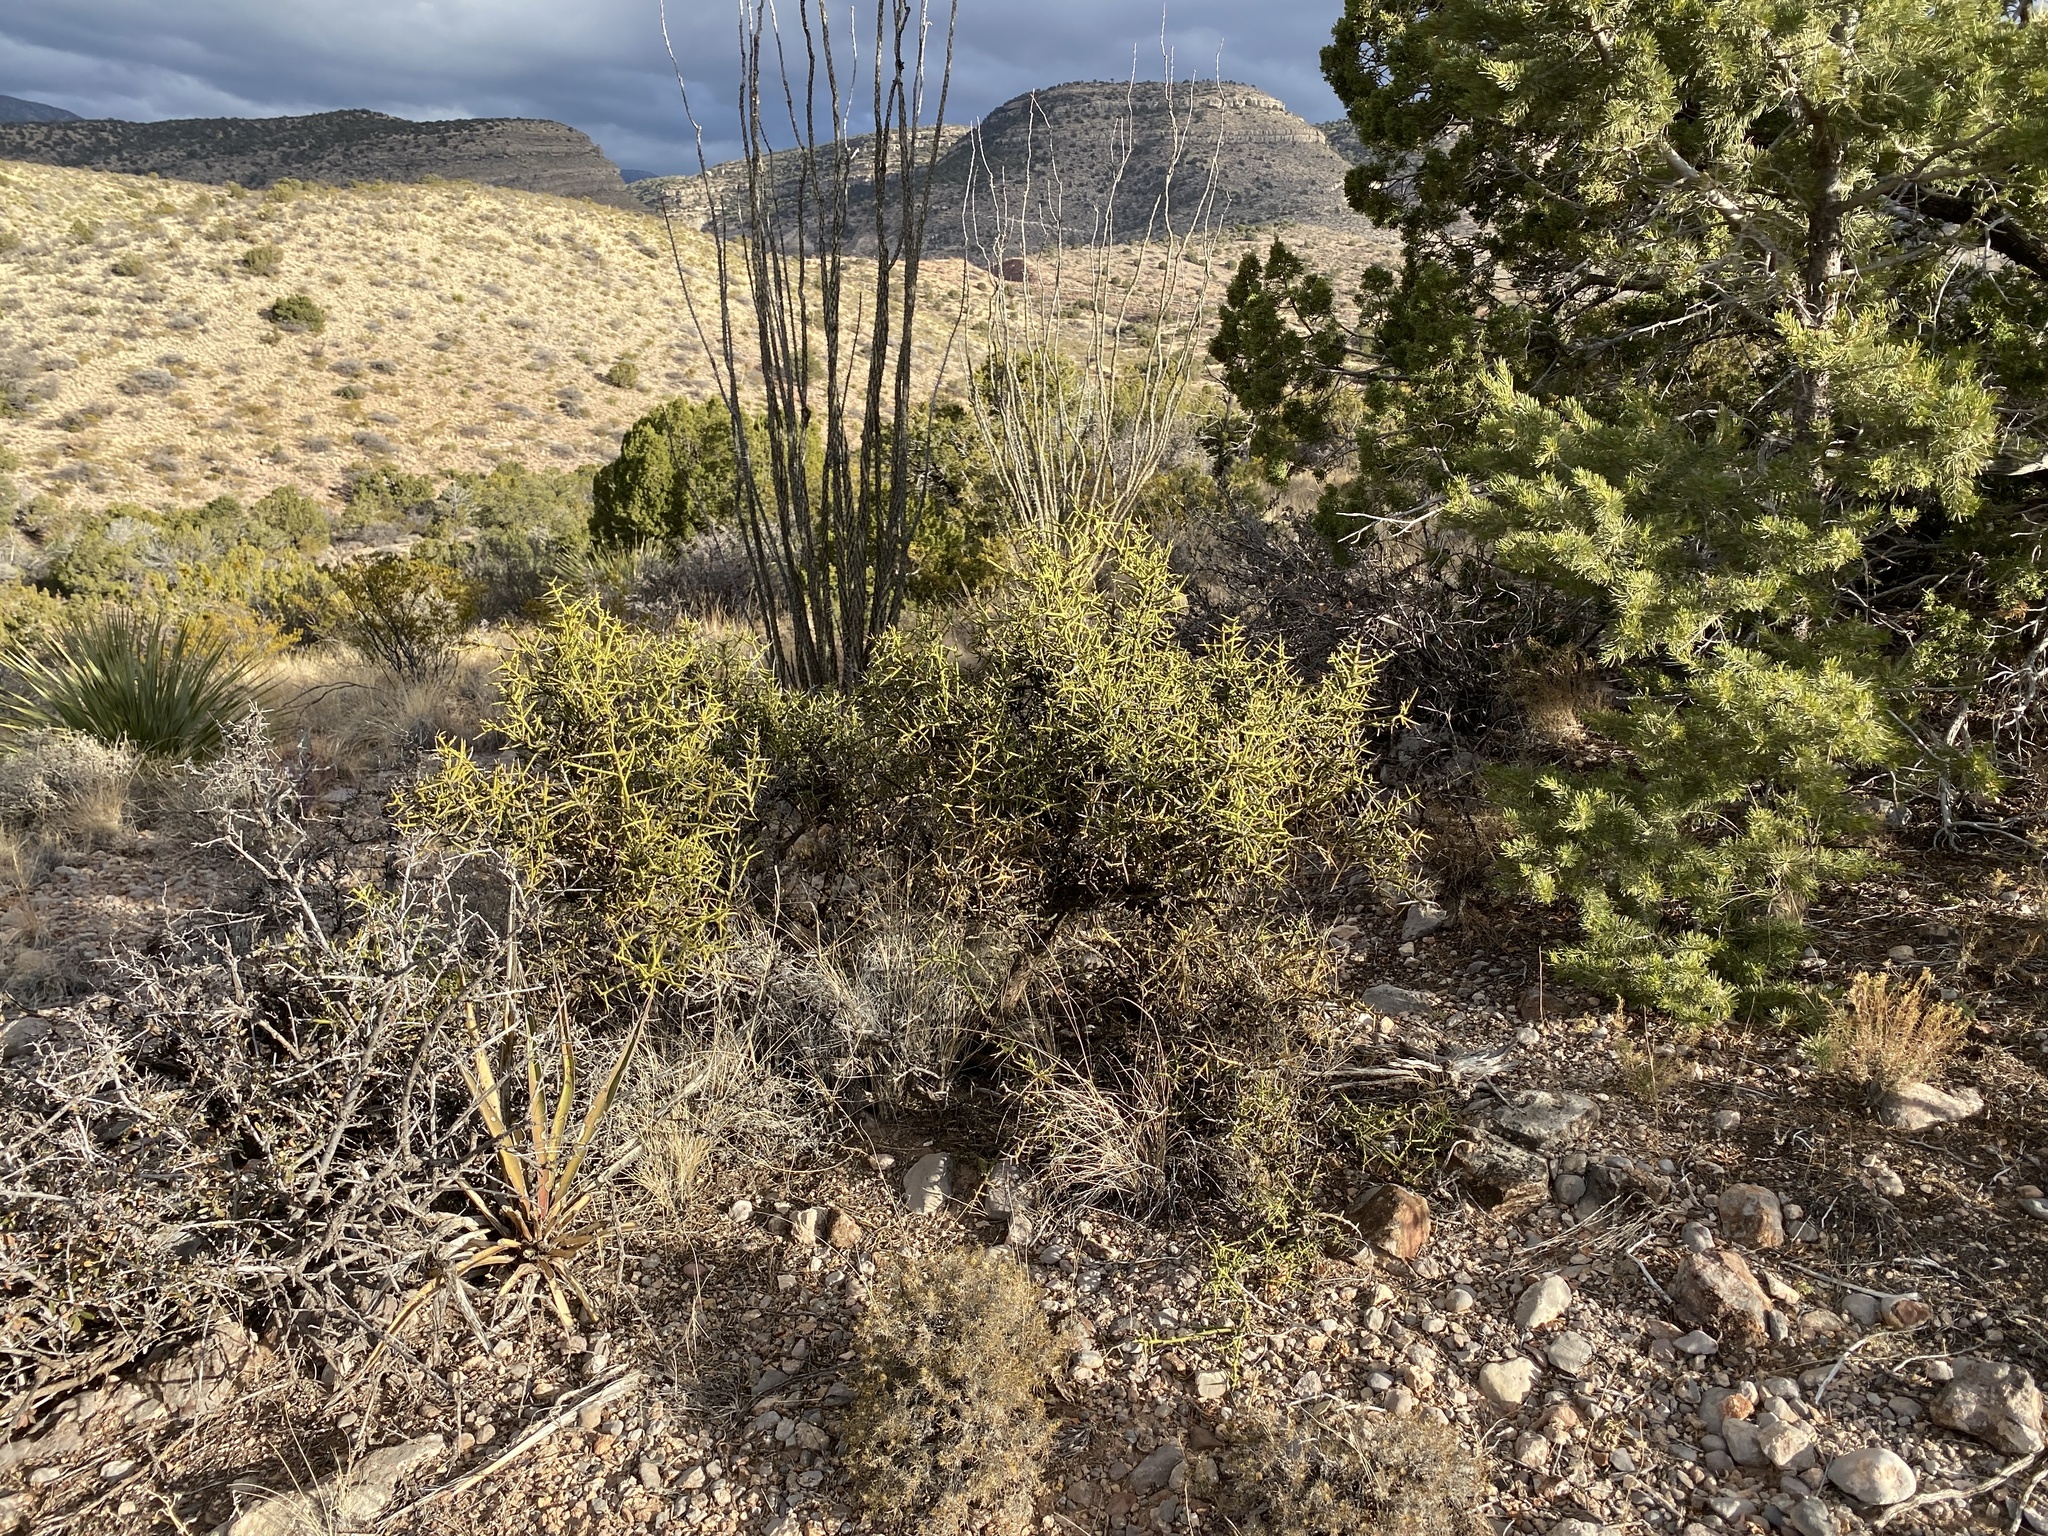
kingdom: Plantae
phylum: Tracheophyta
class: Magnoliopsida
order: Brassicales
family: Koeberliniaceae
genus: Koeberlinia
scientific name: Koeberlinia spinosa
